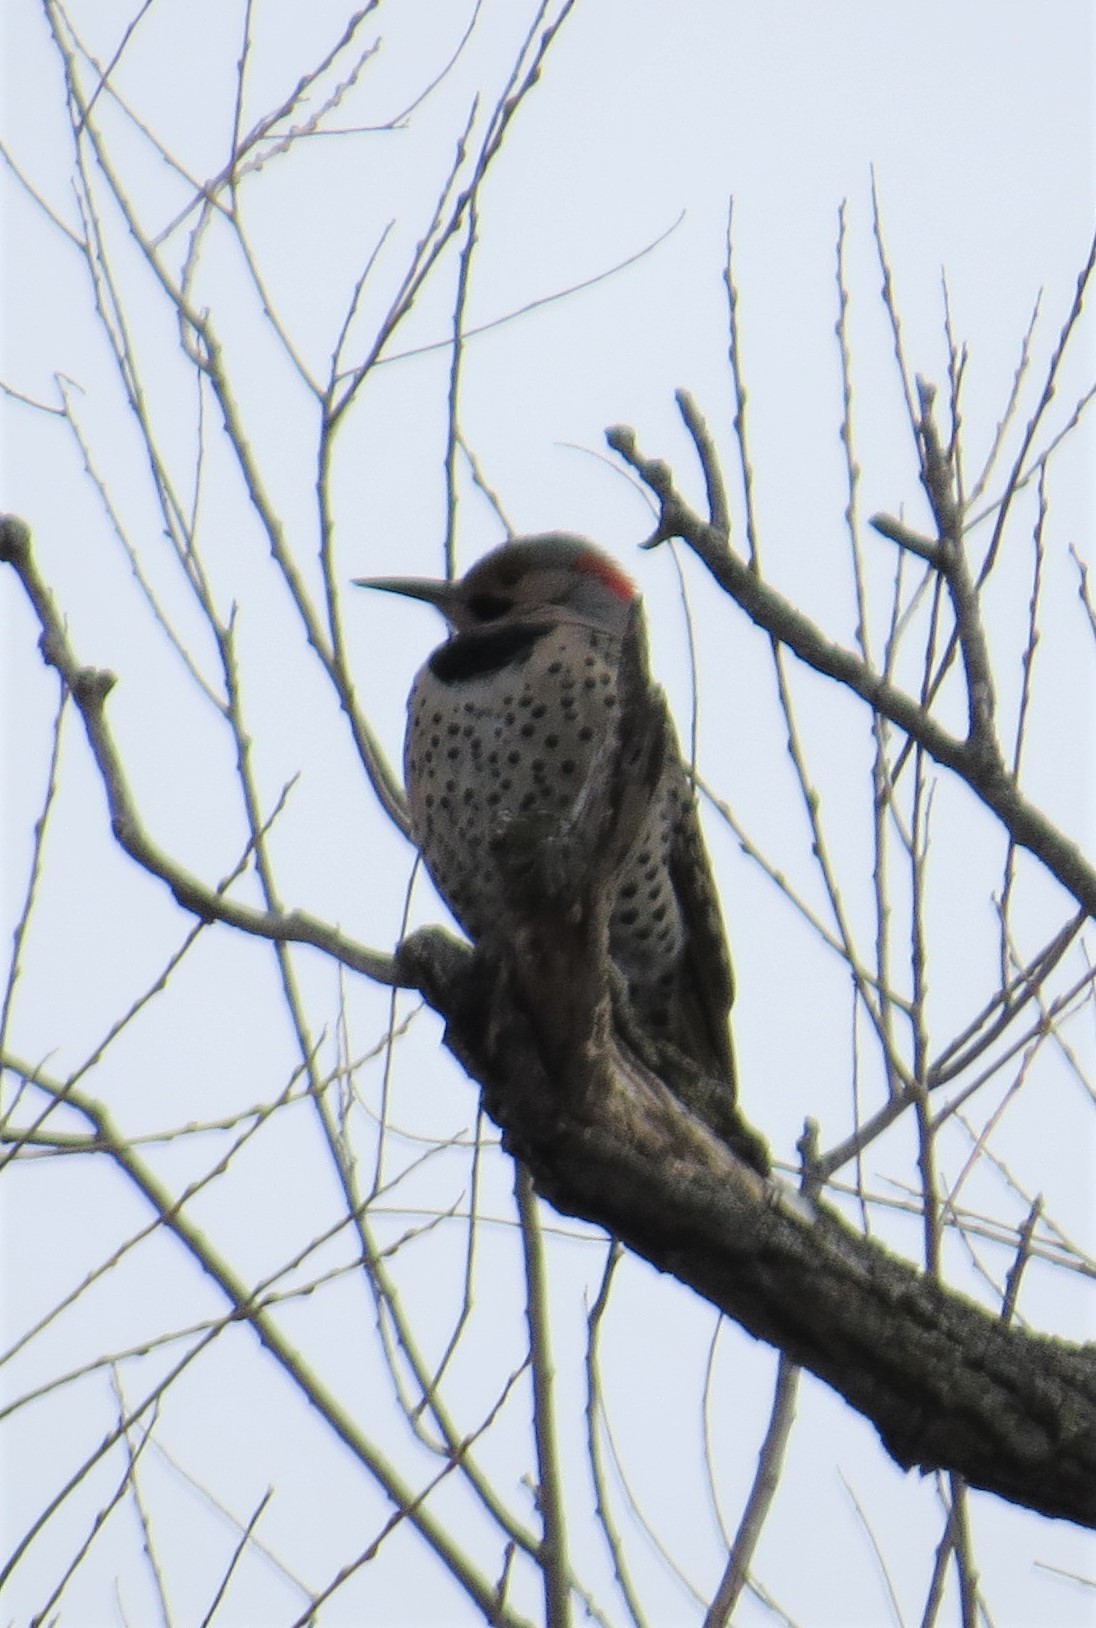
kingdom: Animalia
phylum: Chordata
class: Aves
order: Piciformes
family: Picidae
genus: Colaptes
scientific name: Colaptes auratus
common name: Northern flicker
